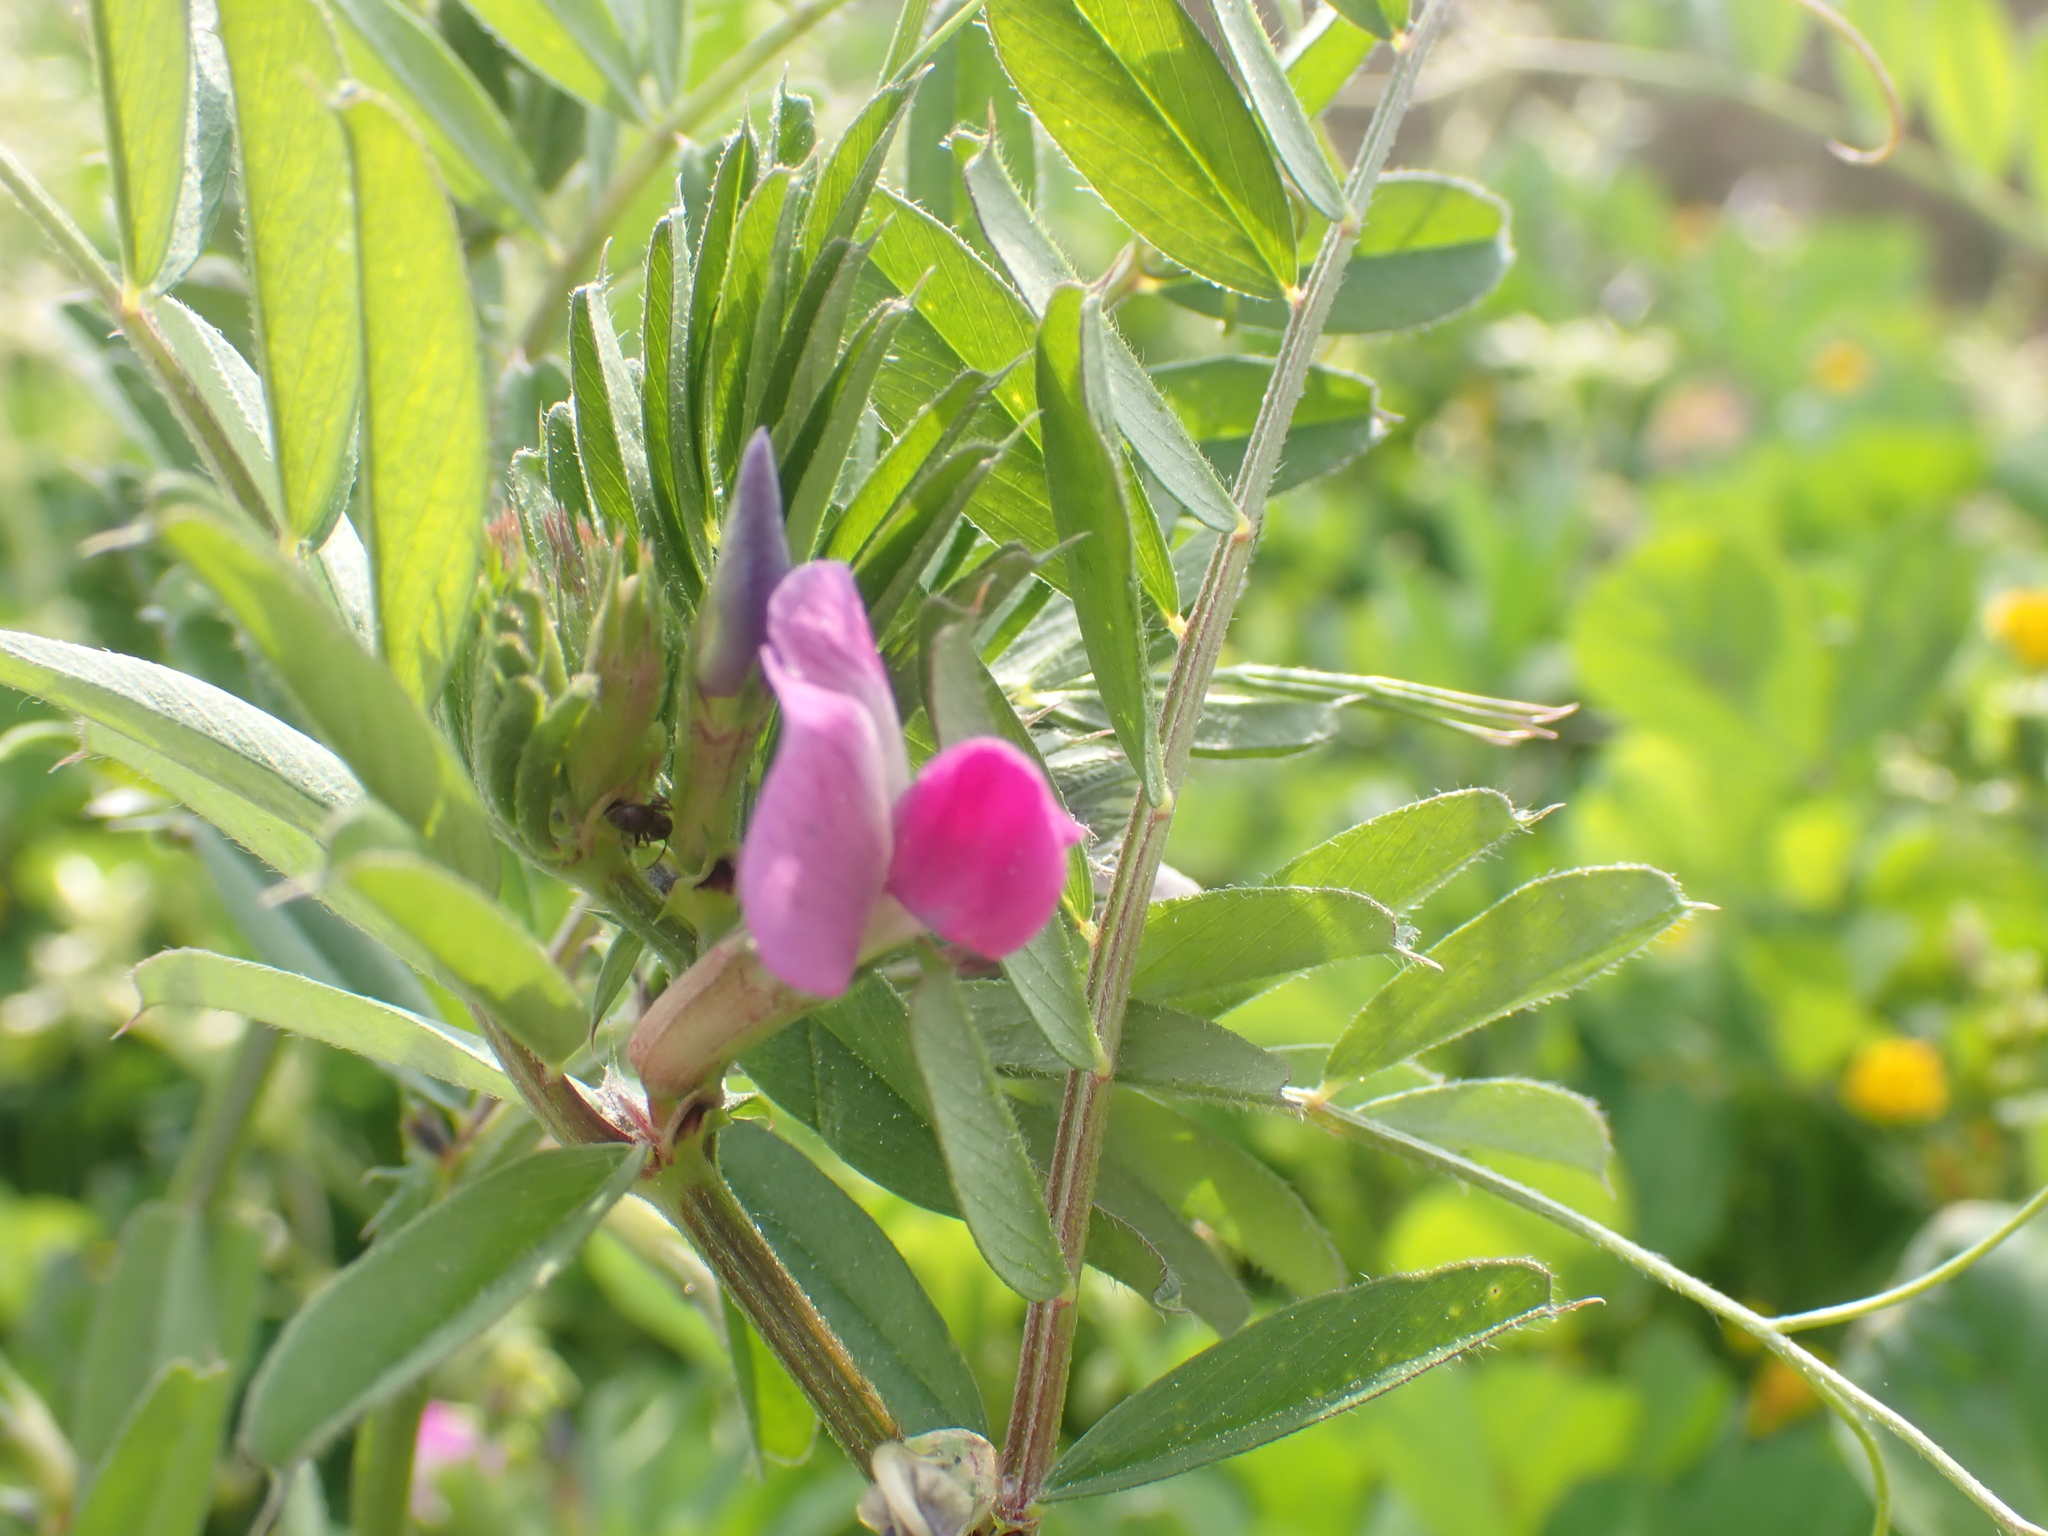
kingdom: Plantae
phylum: Tracheophyta
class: Magnoliopsida
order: Fabales
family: Fabaceae
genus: Vicia
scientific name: Vicia sativa
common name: Garden vetch
